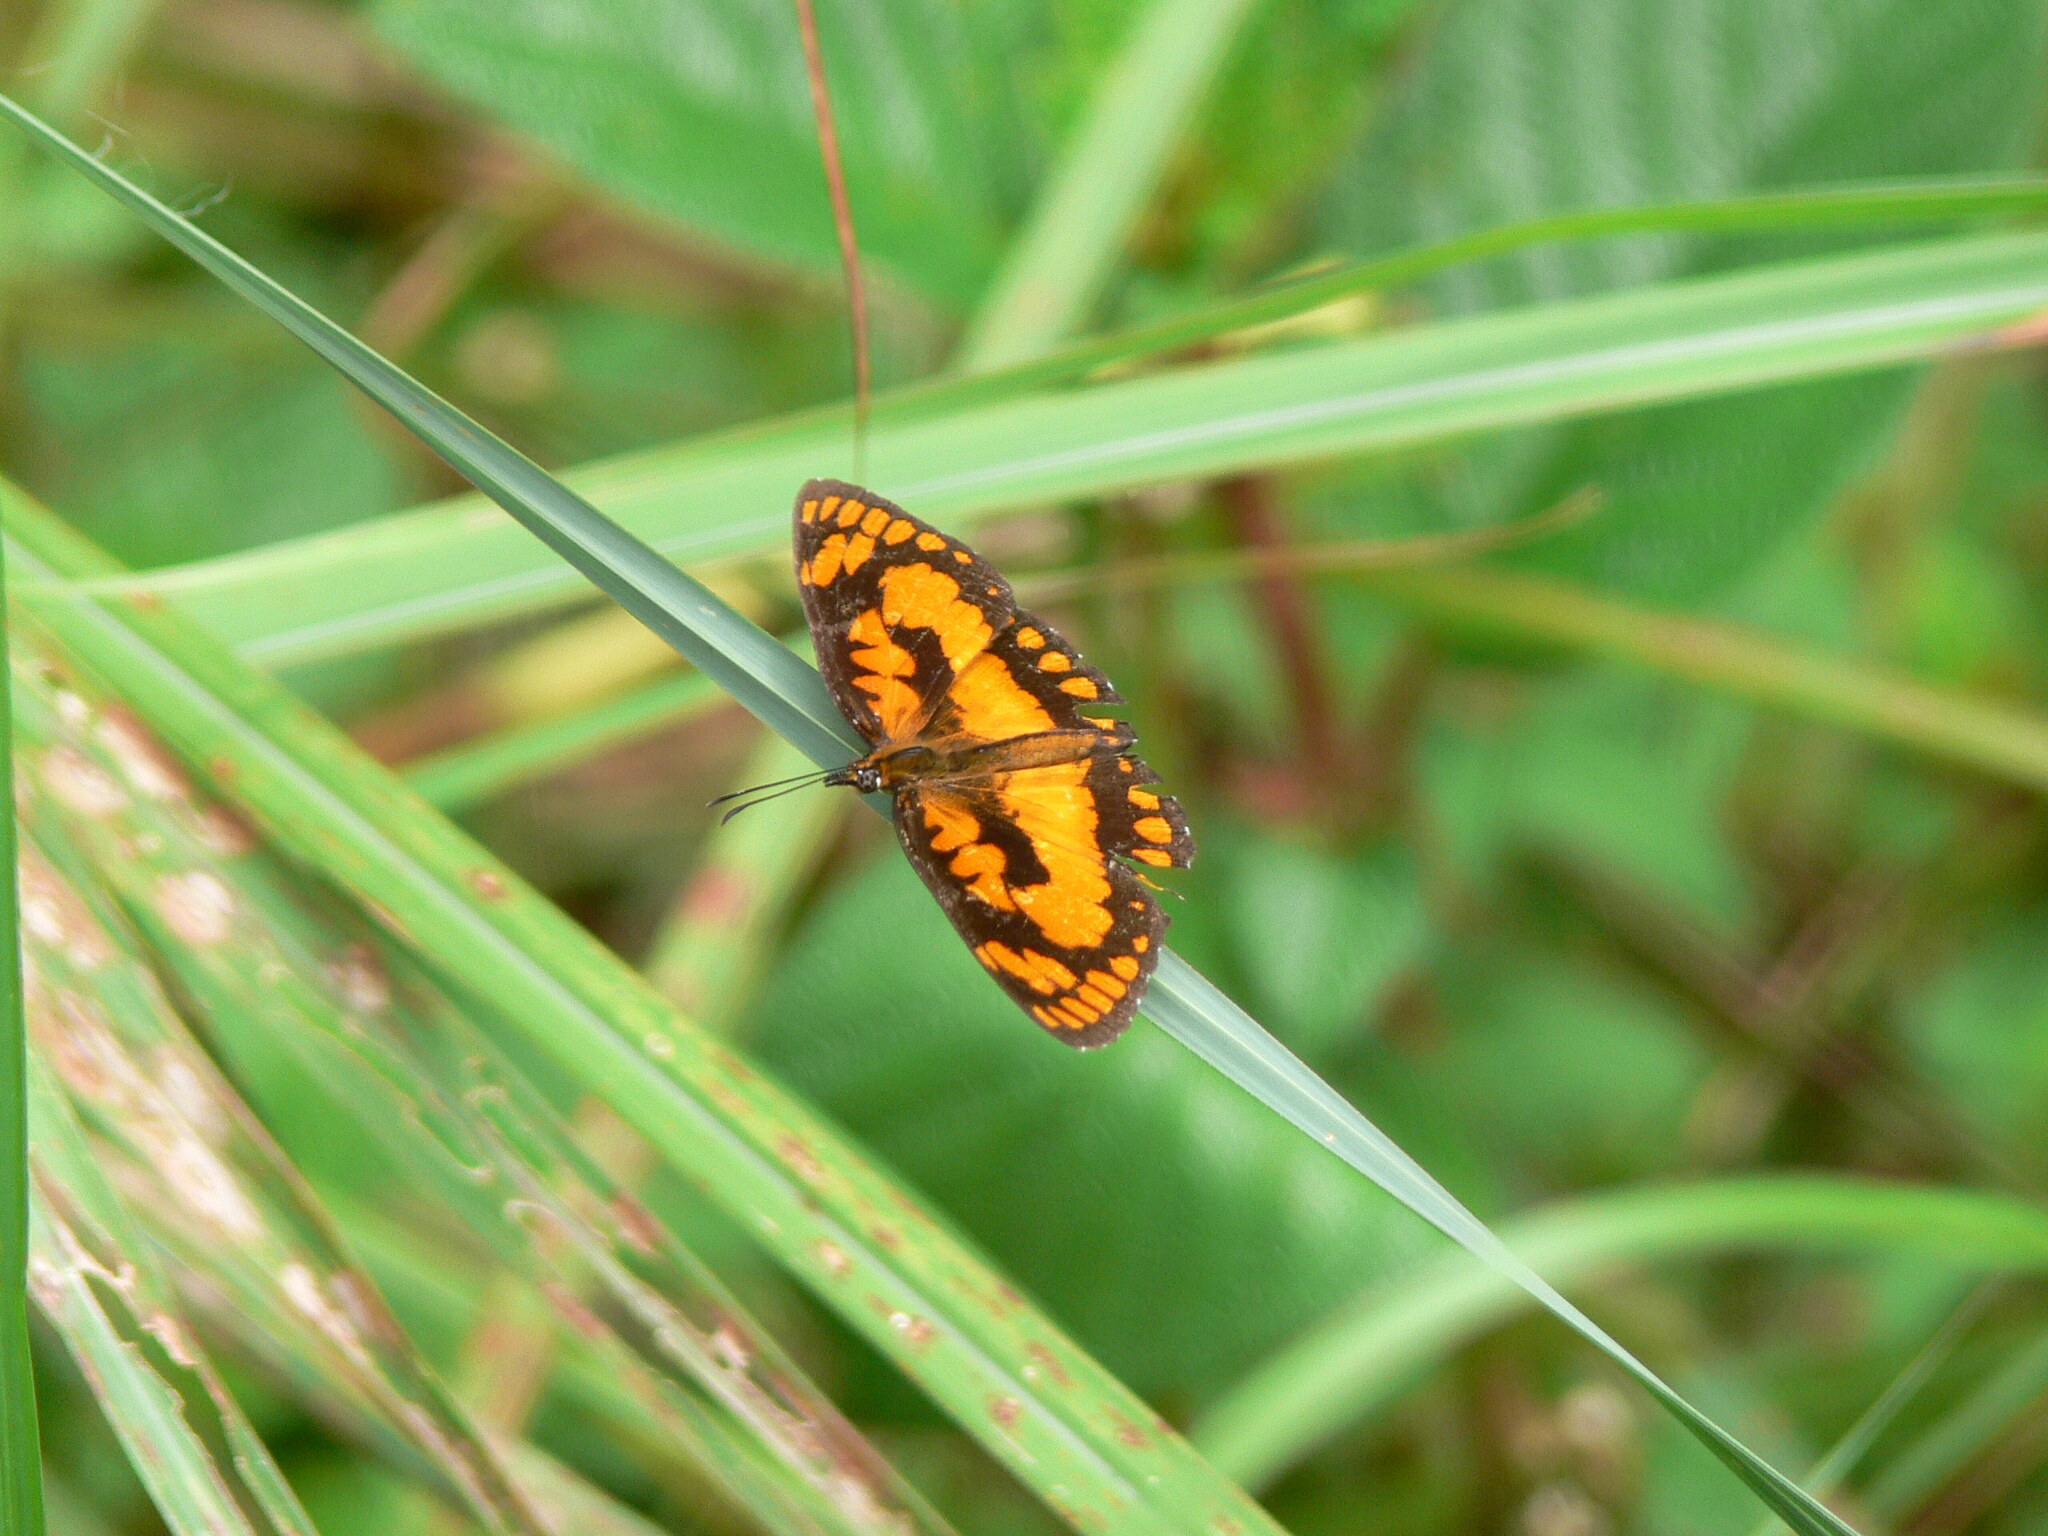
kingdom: Animalia
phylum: Arthropoda
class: Insecta
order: Lepidoptera
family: Nymphalidae
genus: Byblia
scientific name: Byblia anvatara
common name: African joker
